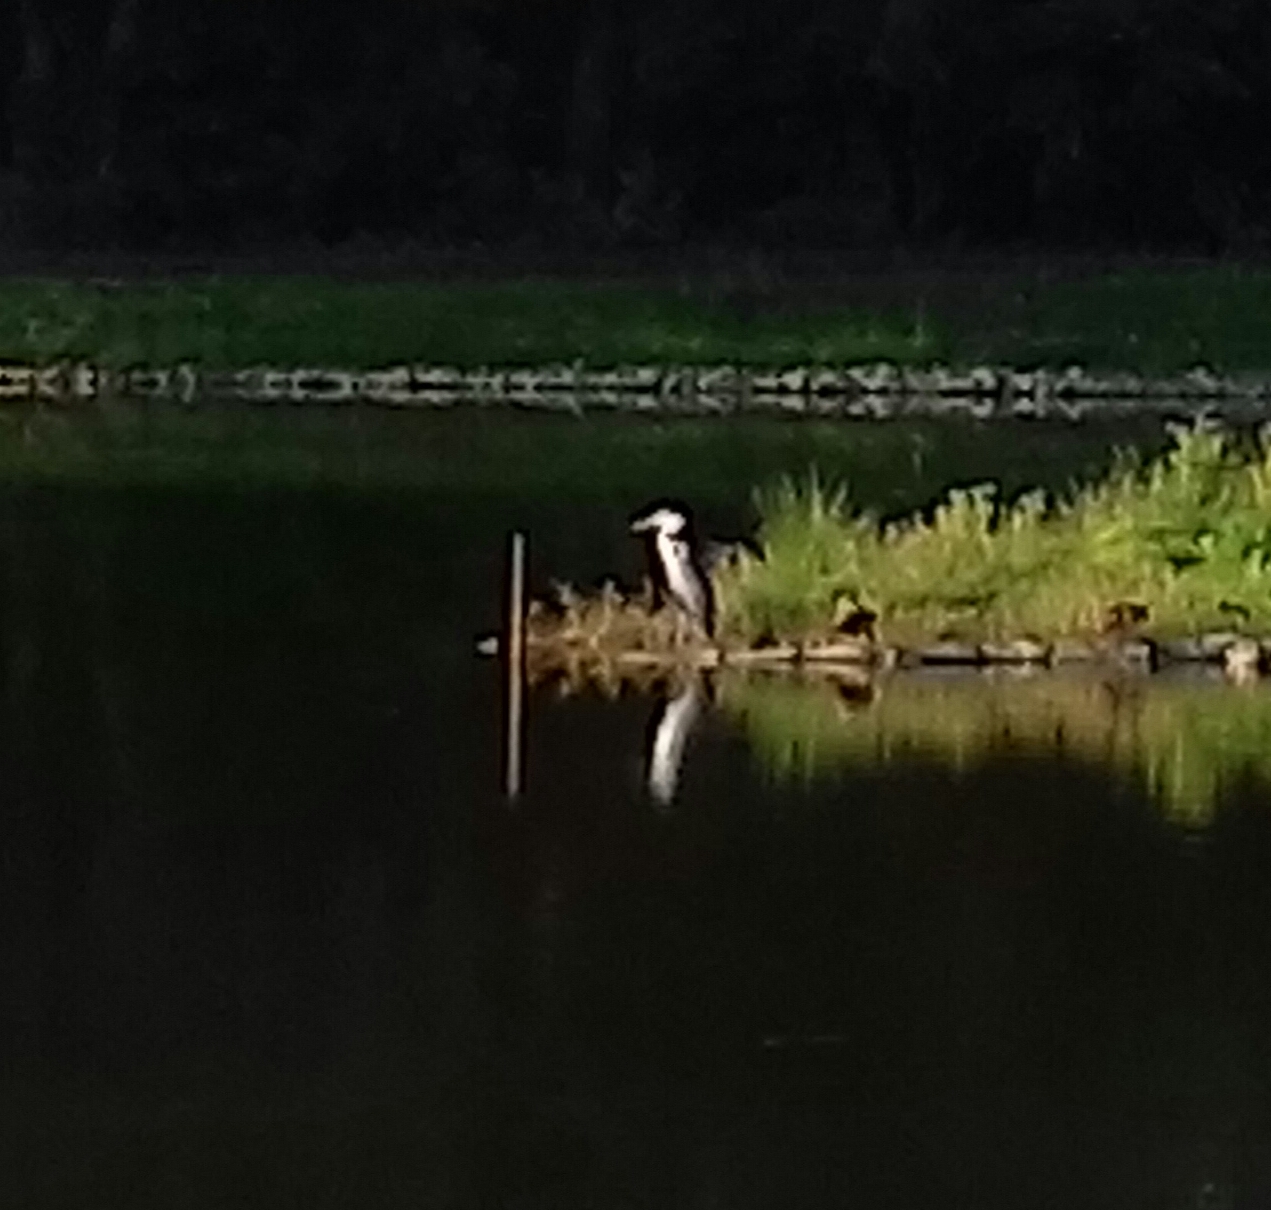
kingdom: Animalia
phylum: Chordata
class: Aves
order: Pelecaniformes
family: Ardeidae
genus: Ardea
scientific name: Ardea cinerea
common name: Grey heron
